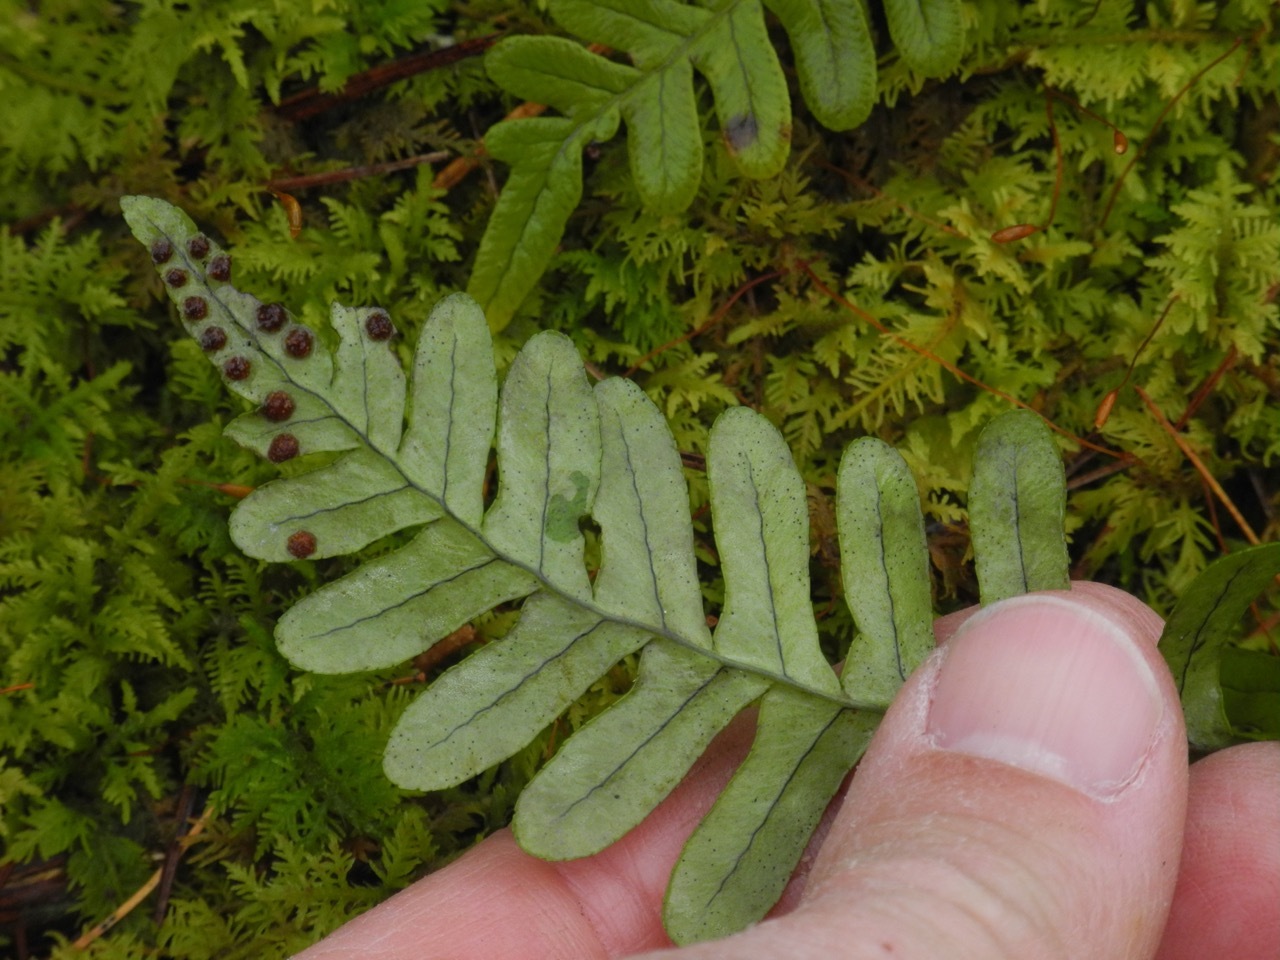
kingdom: Plantae
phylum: Tracheophyta
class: Polypodiopsida
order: Polypodiales
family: Polypodiaceae
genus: Polypodium
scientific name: Polypodium virginianum
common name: American wall fern
